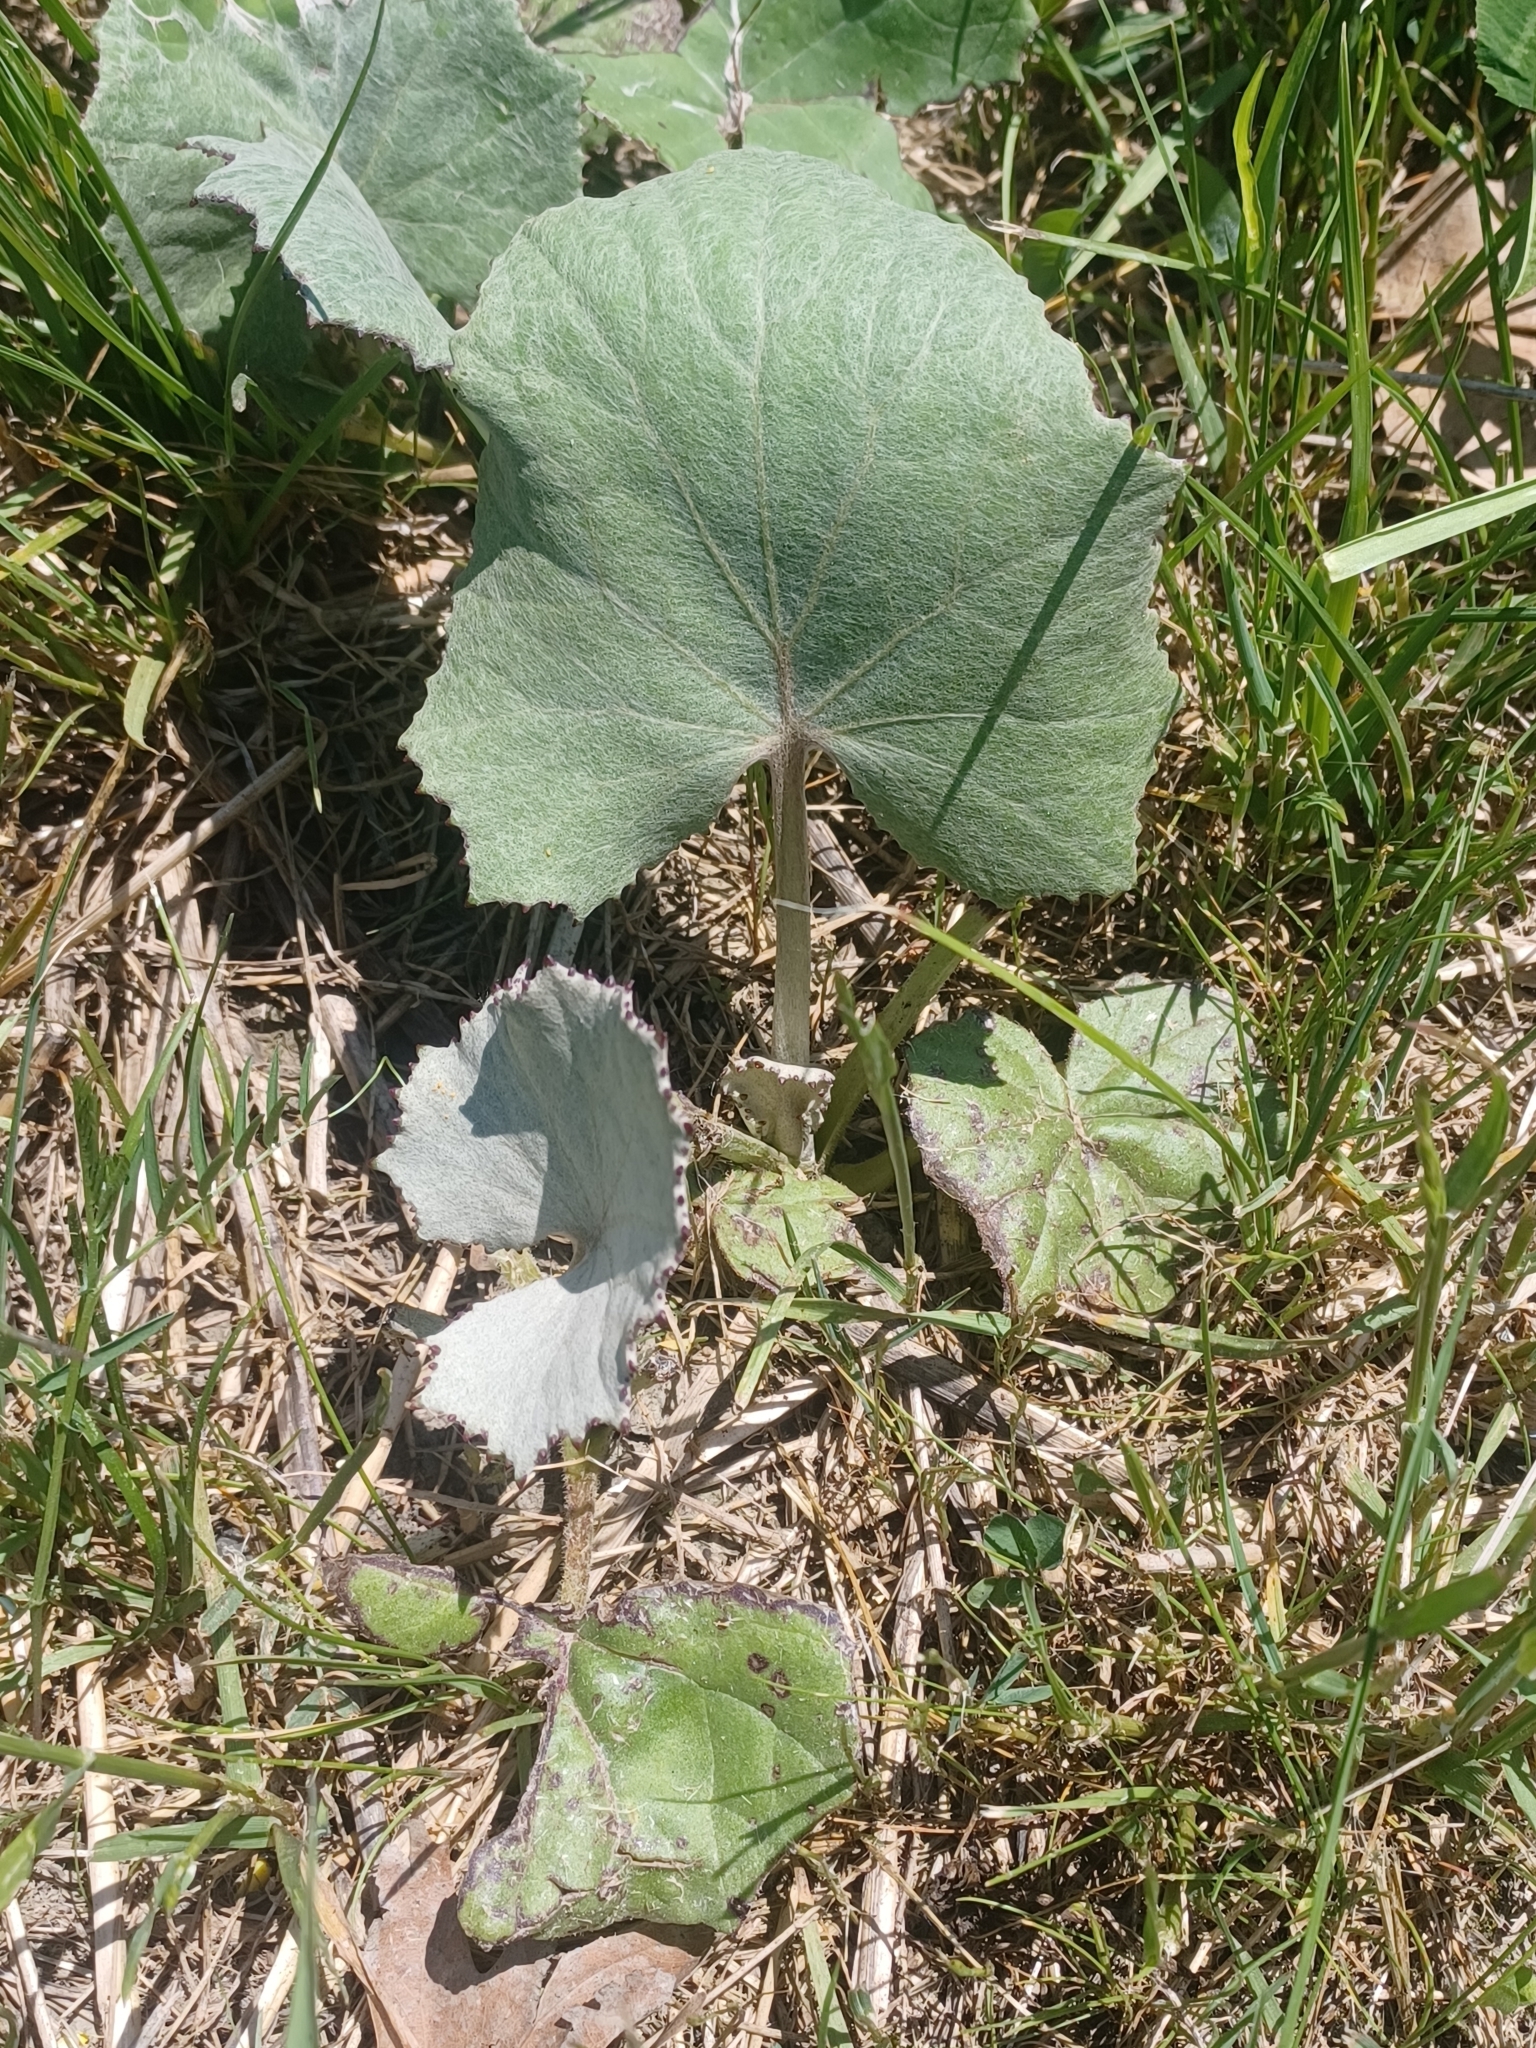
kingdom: Plantae
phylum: Tracheophyta
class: Magnoliopsida
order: Asterales
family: Asteraceae
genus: Tussilago
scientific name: Tussilago farfara
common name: Coltsfoot
